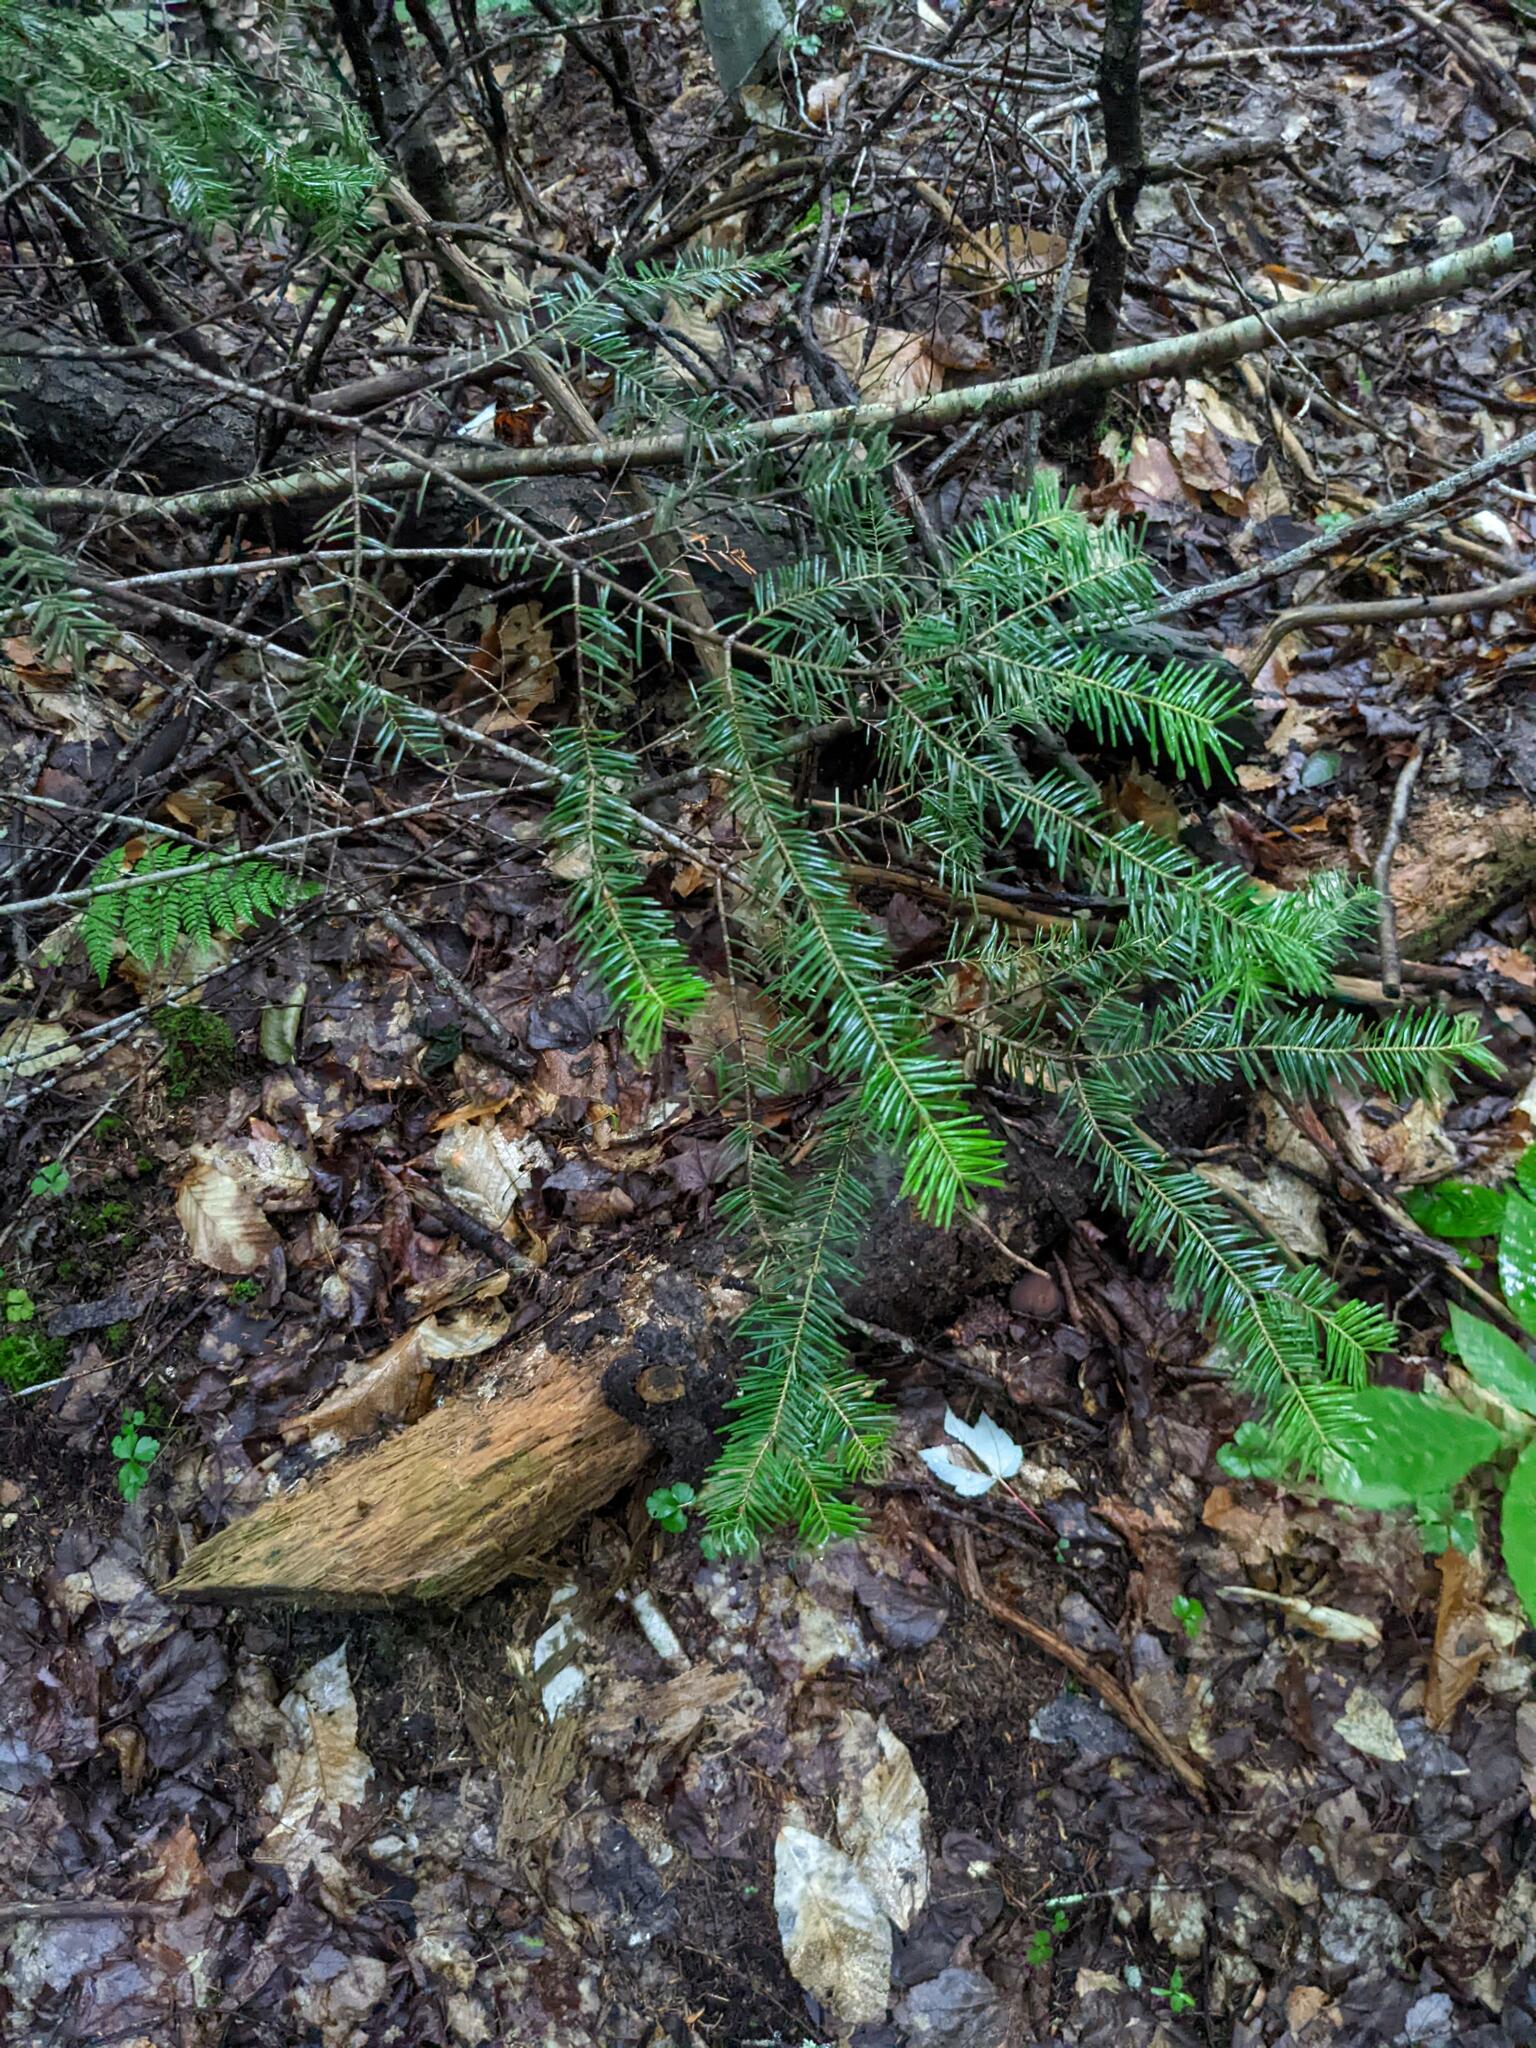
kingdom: Plantae
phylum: Tracheophyta
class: Pinopsida
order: Pinales
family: Pinaceae
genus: Abies
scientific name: Abies balsamea
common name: Balsam fir
